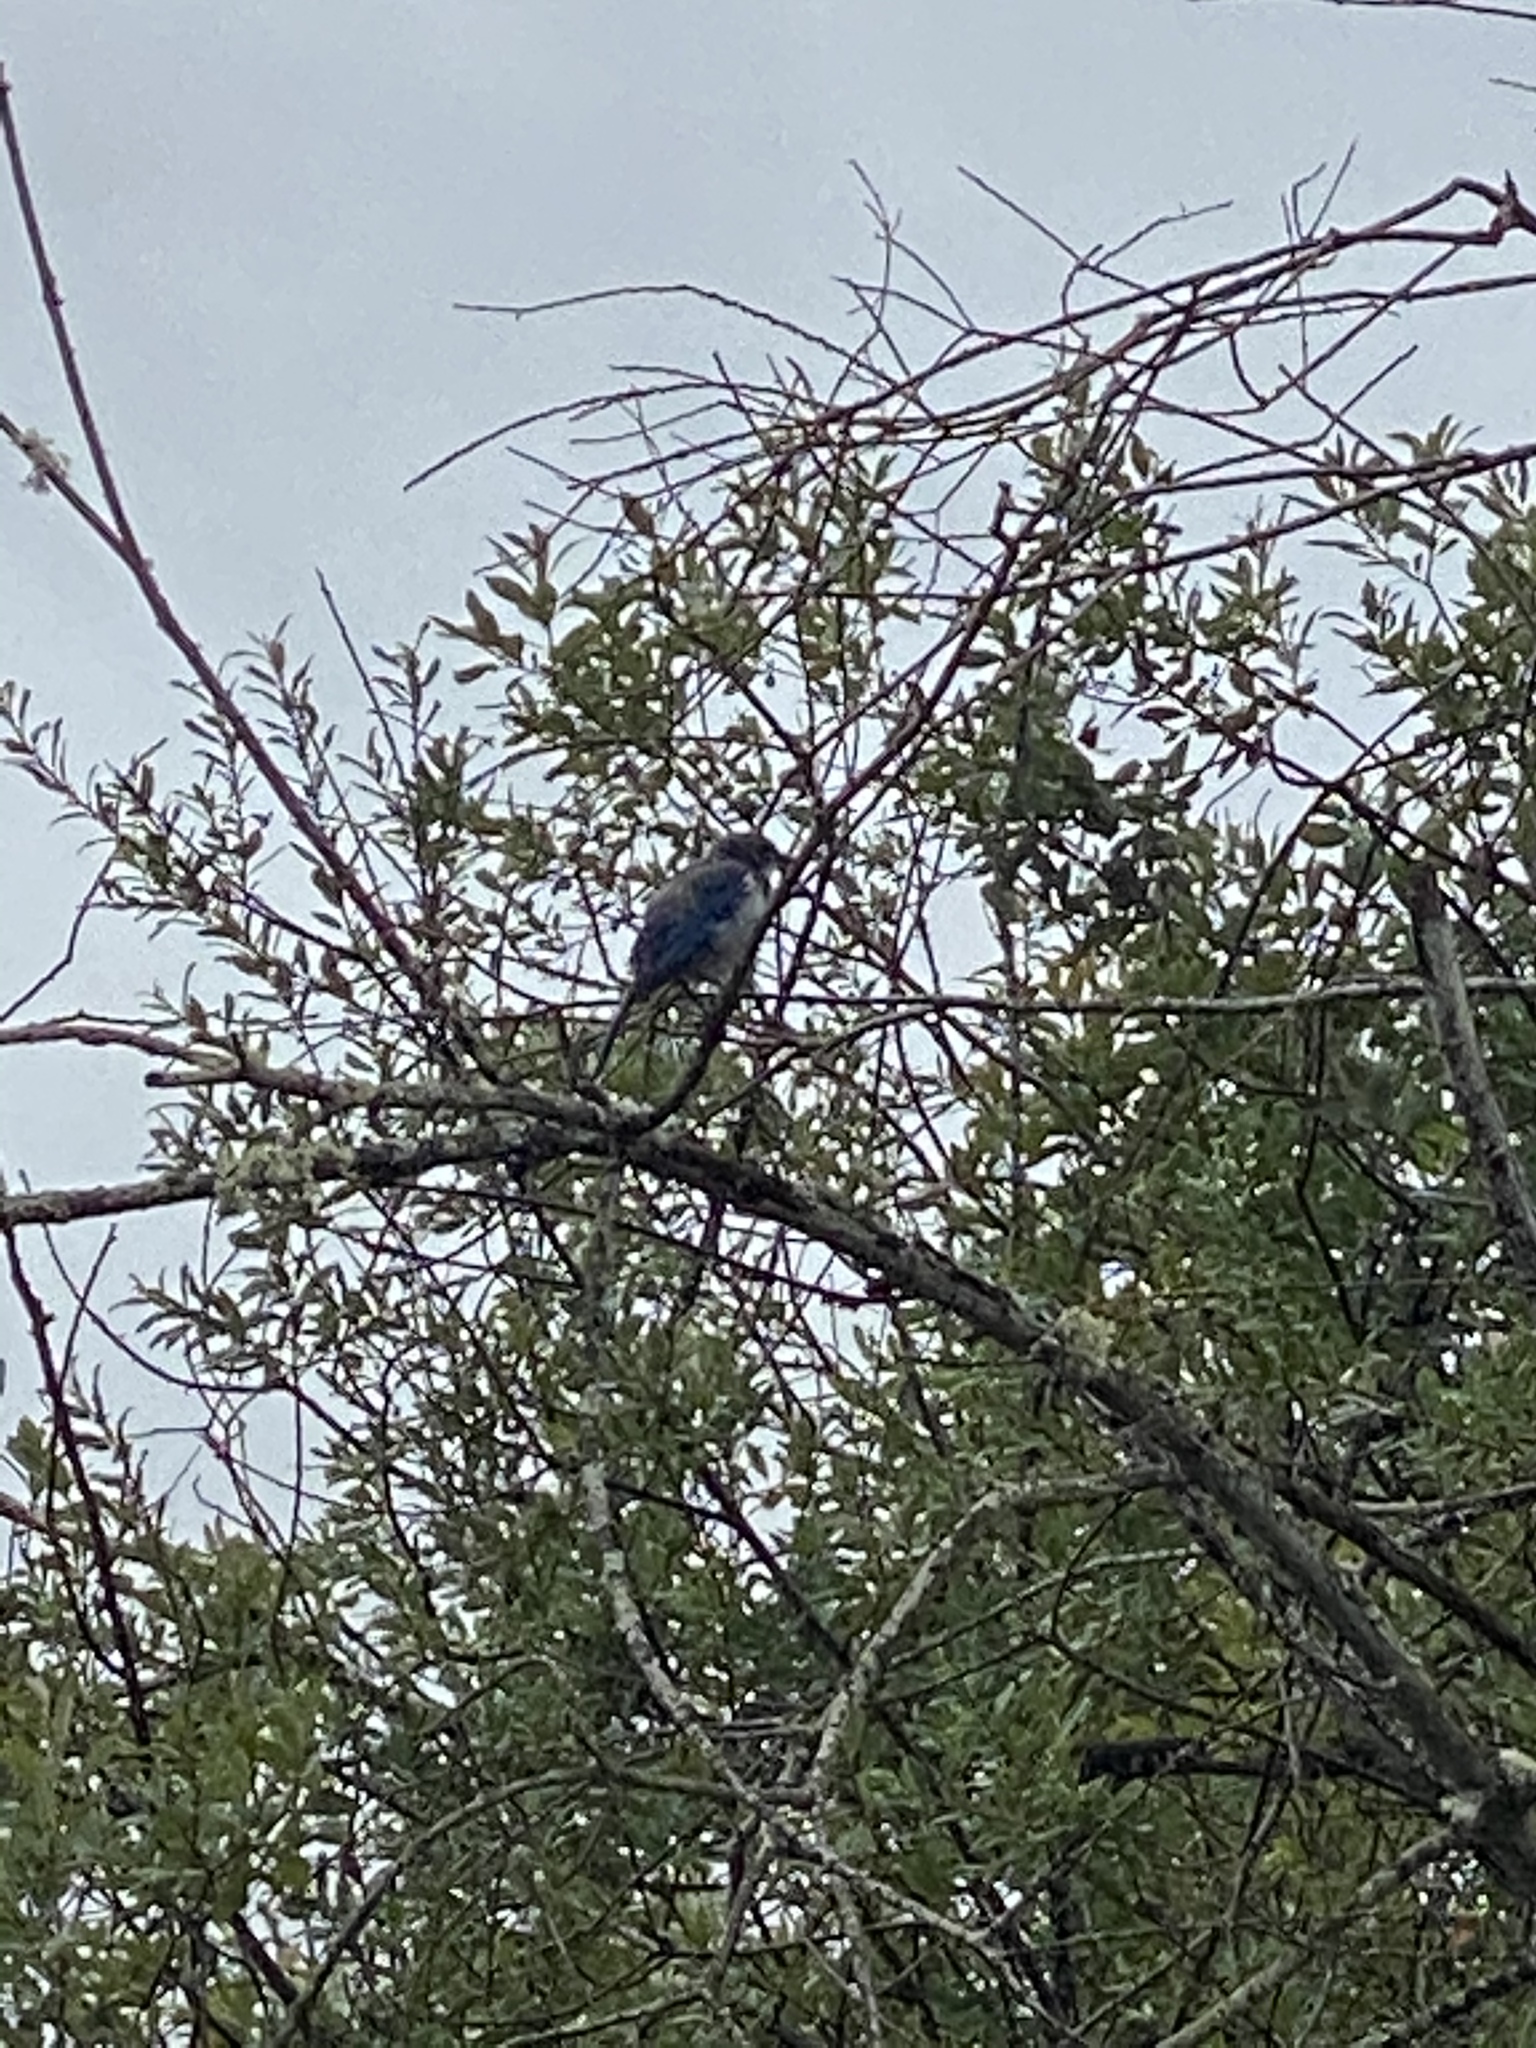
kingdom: Animalia
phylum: Chordata
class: Aves
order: Passeriformes
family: Corvidae
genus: Aphelocoma
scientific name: Aphelocoma californica
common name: California scrub-jay
